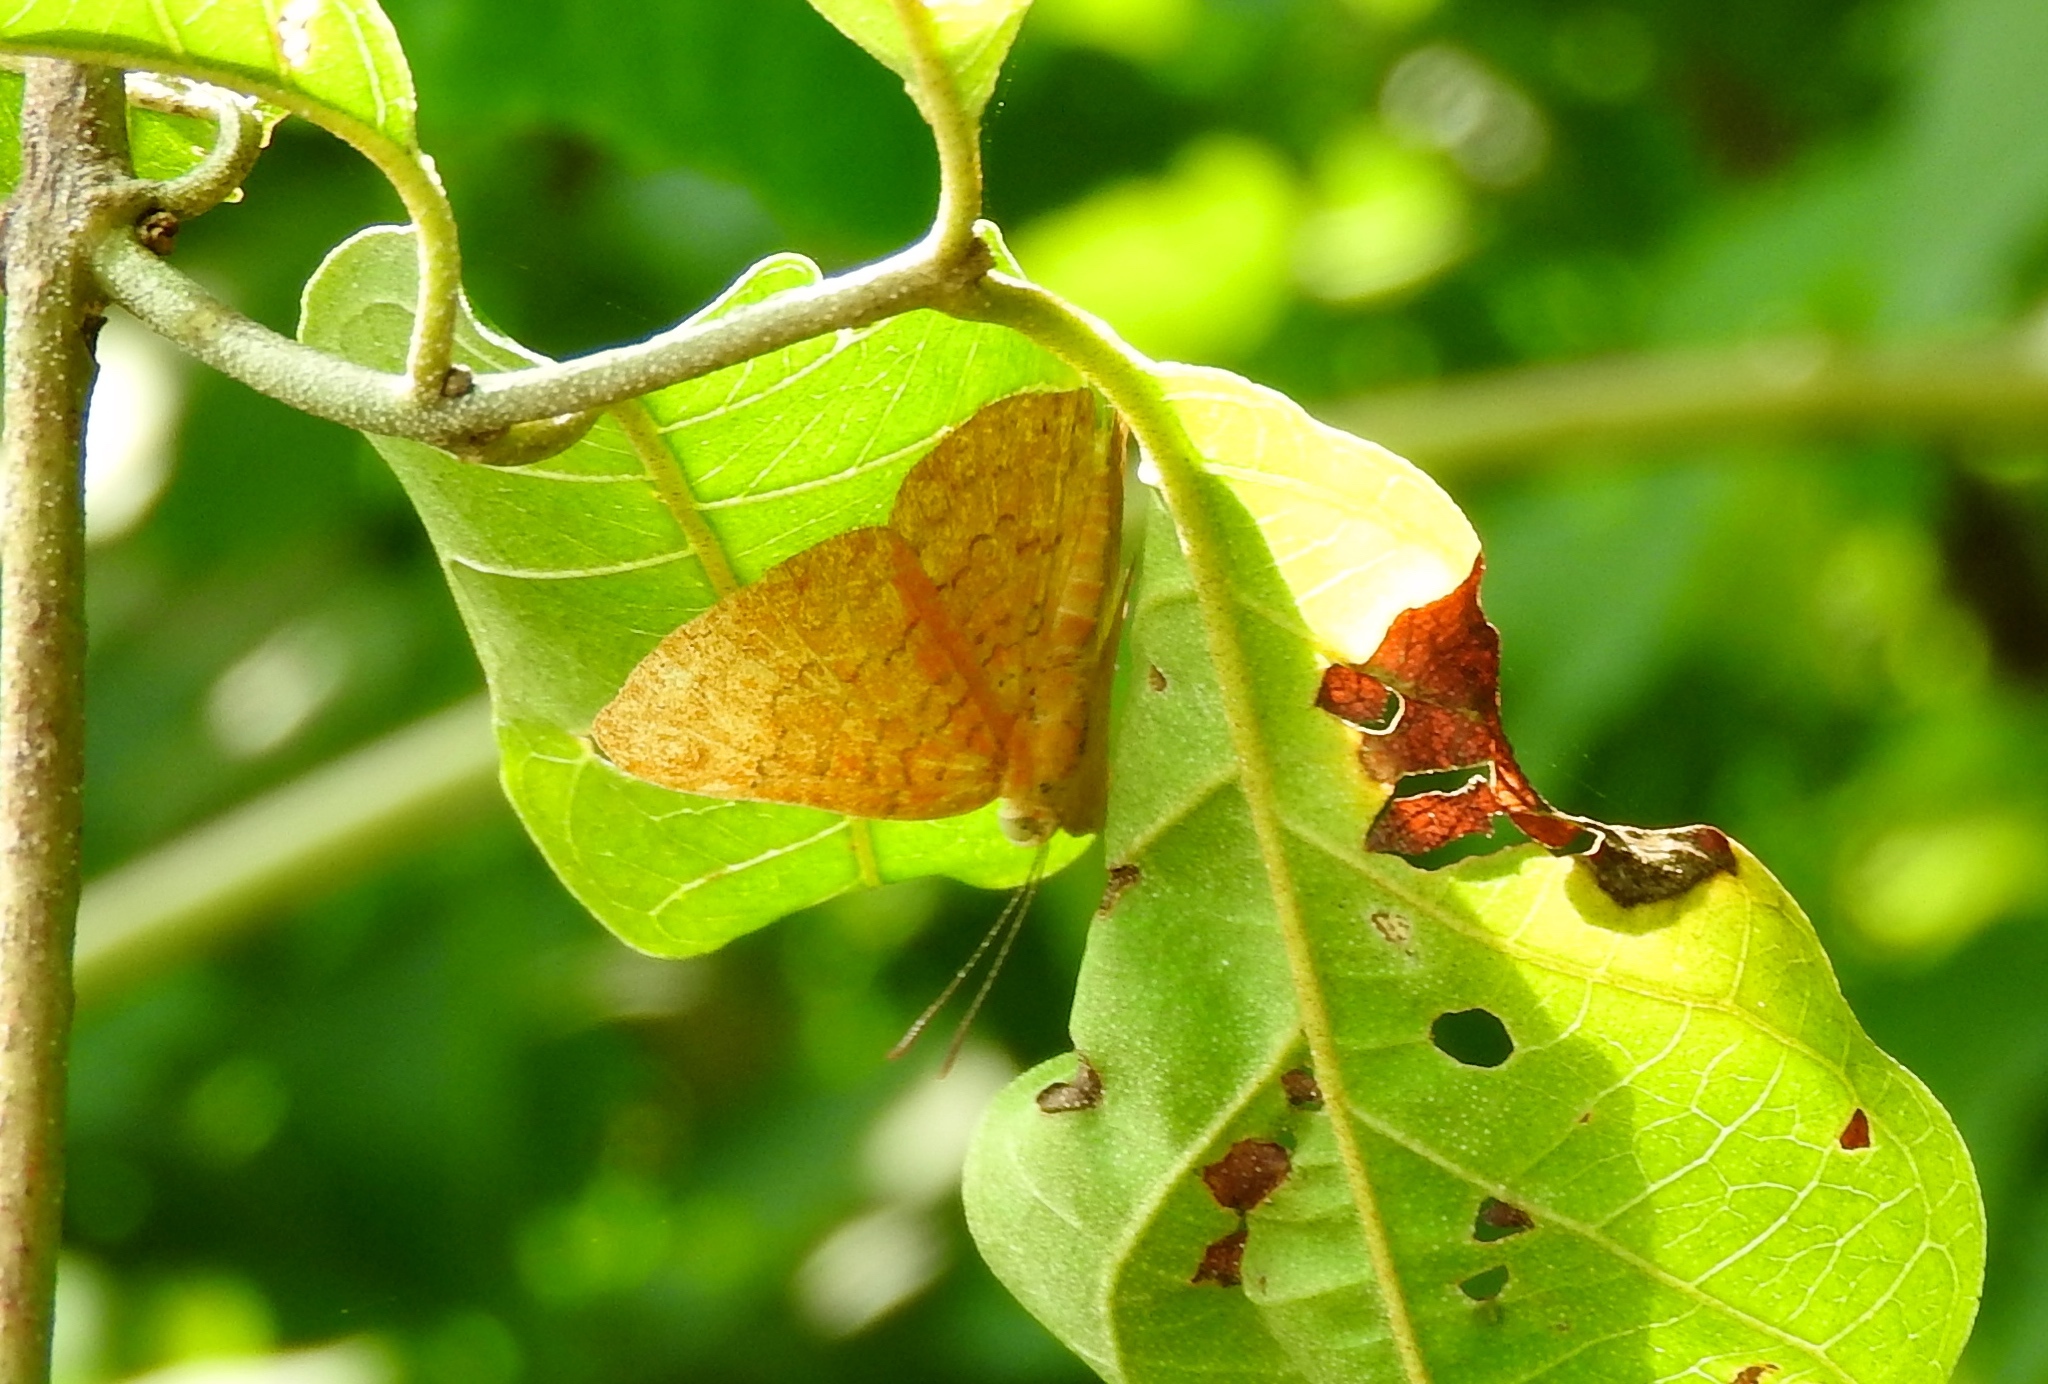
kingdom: Animalia
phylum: Arthropoda
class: Insecta
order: Lepidoptera
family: Lycaenidae
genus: Emesis
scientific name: Emesis
